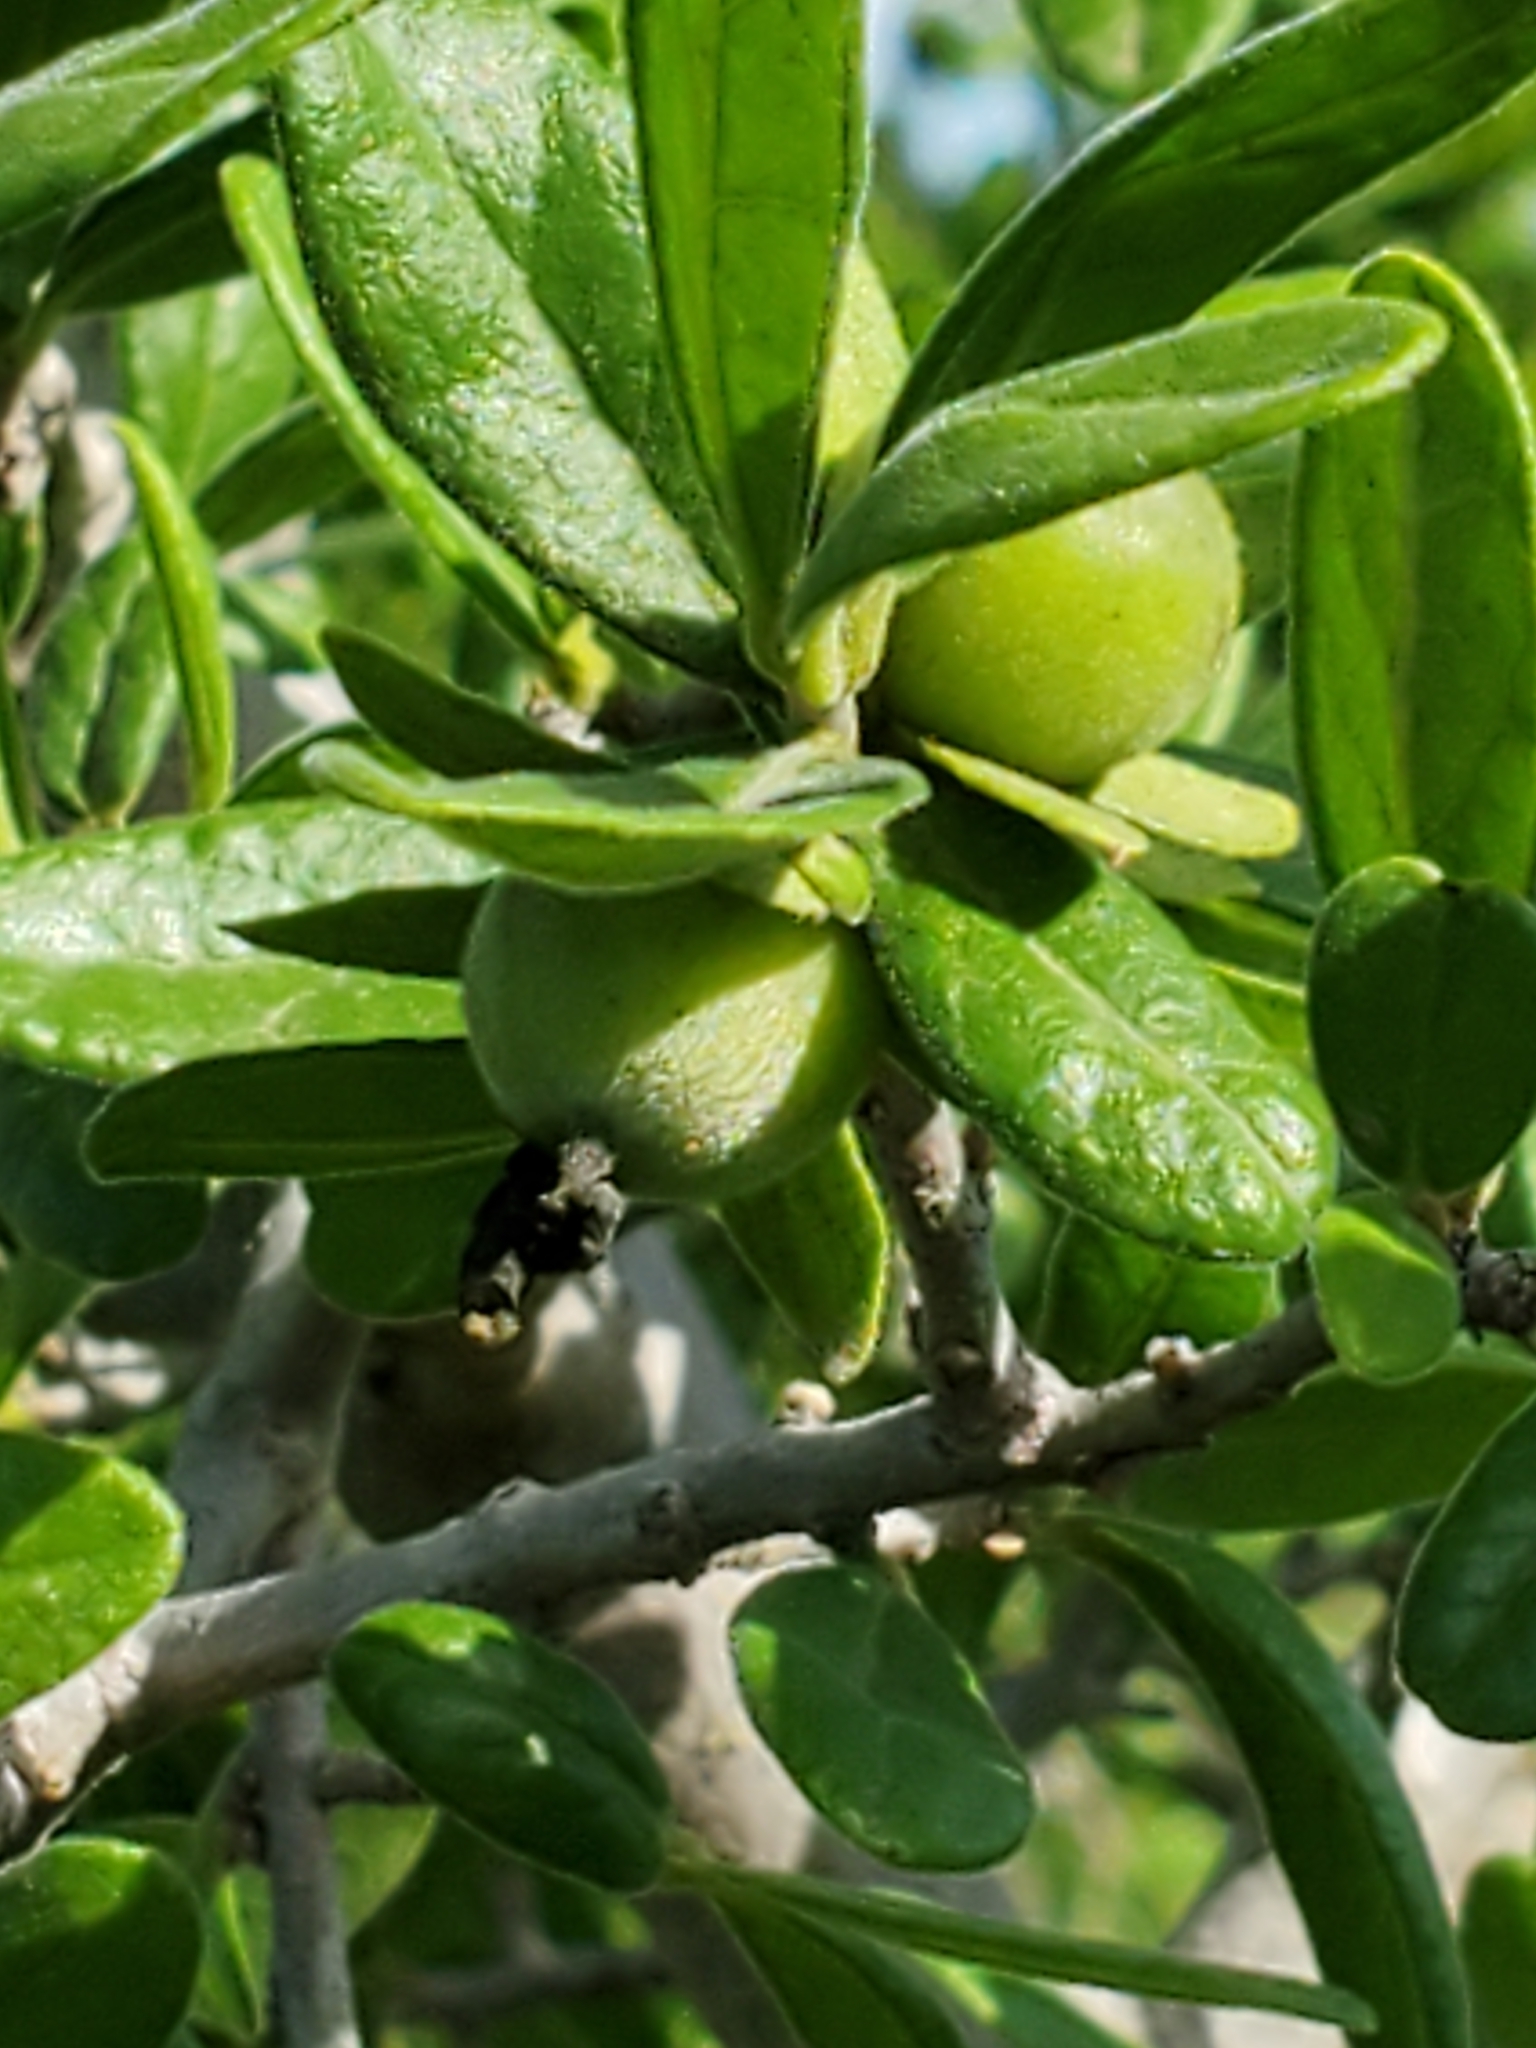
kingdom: Plantae
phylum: Tracheophyta
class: Magnoliopsida
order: Ericales
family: Ebenaceae
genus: Diospyros
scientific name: Diospyros texana
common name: Texas persimmon
